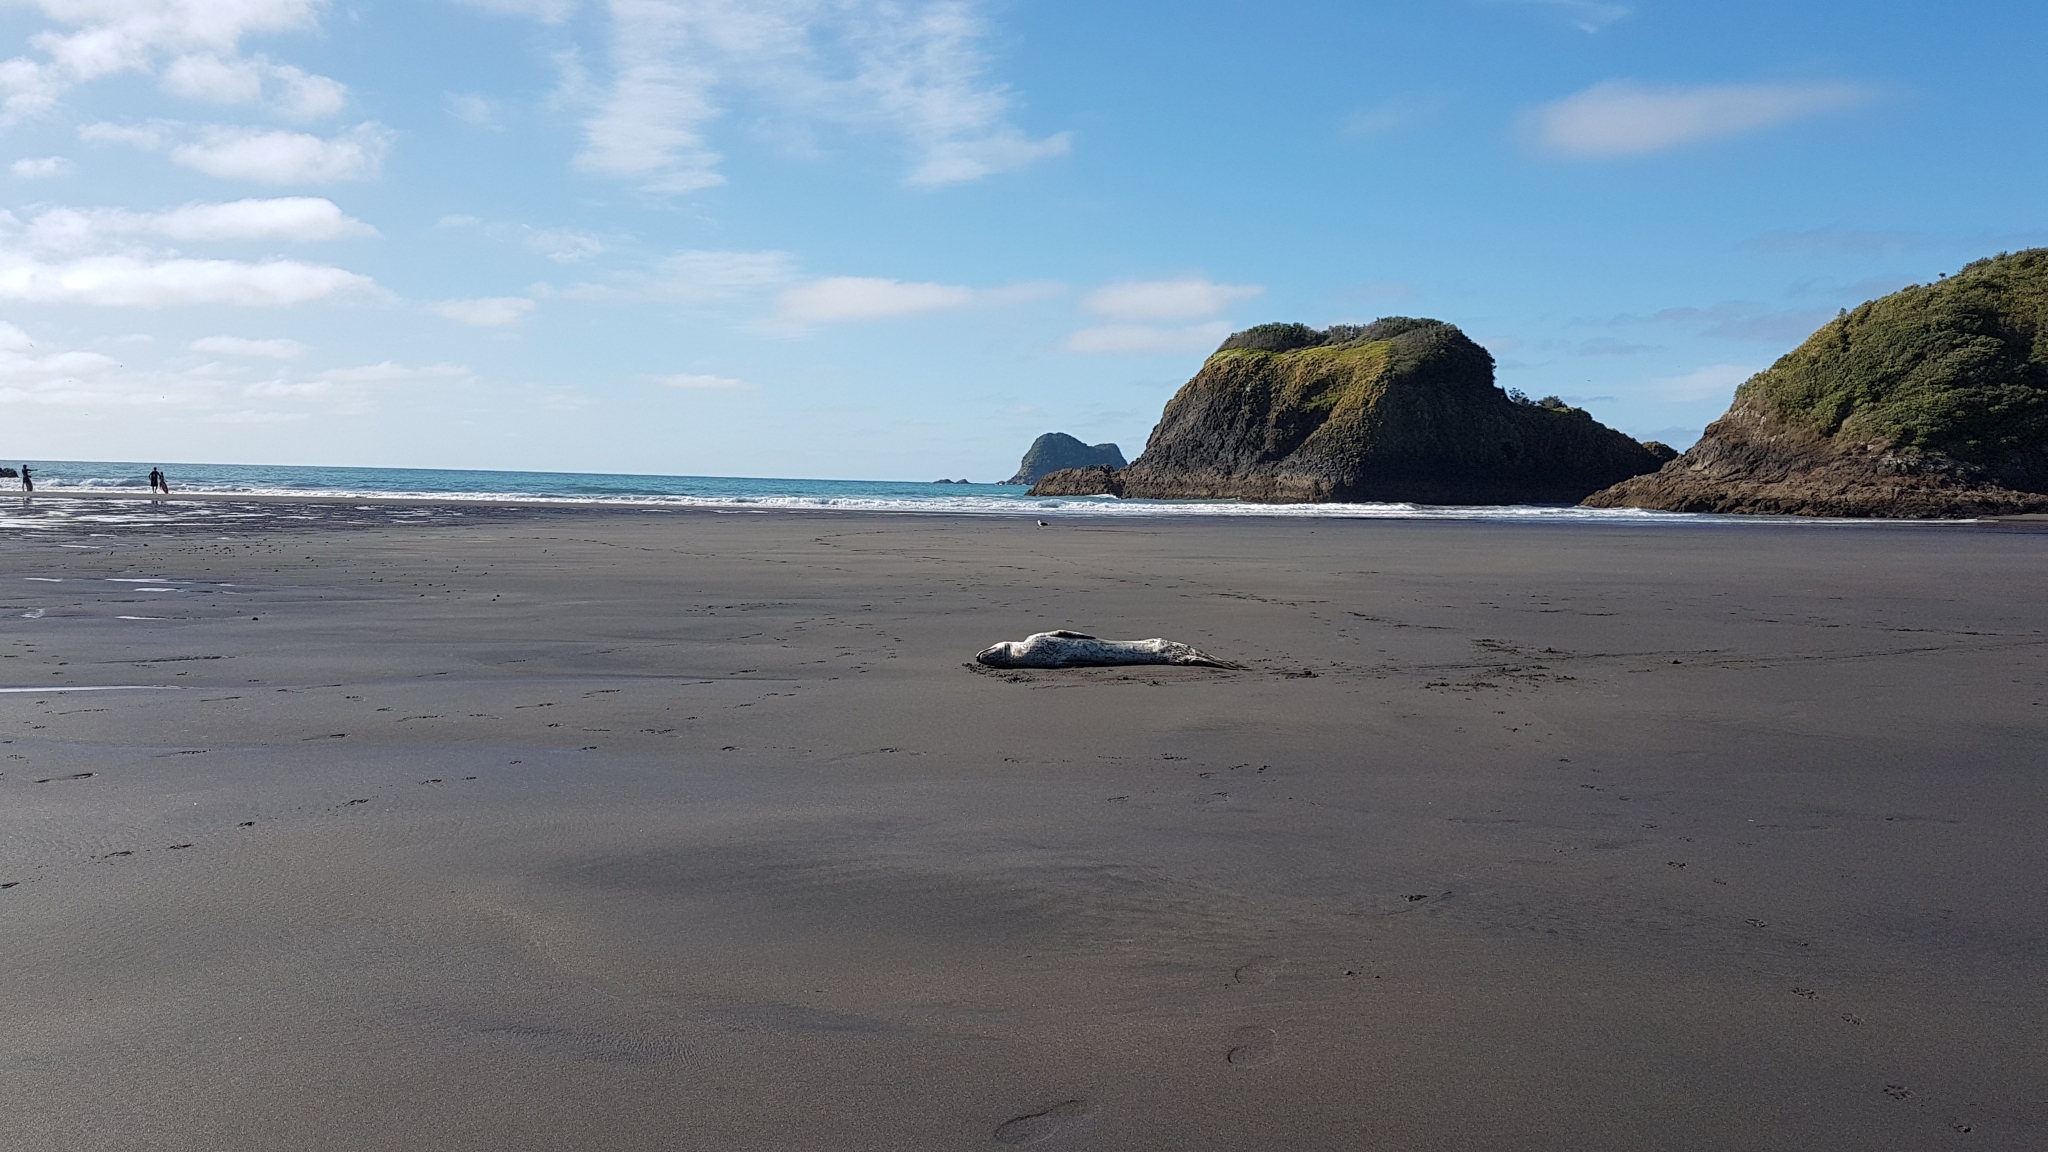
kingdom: Animalia
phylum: Chordata
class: Mammalia
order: Carnivora
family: Phocidae
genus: Hydrurga
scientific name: Hydrurga leptonyx
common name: Leopard seal
